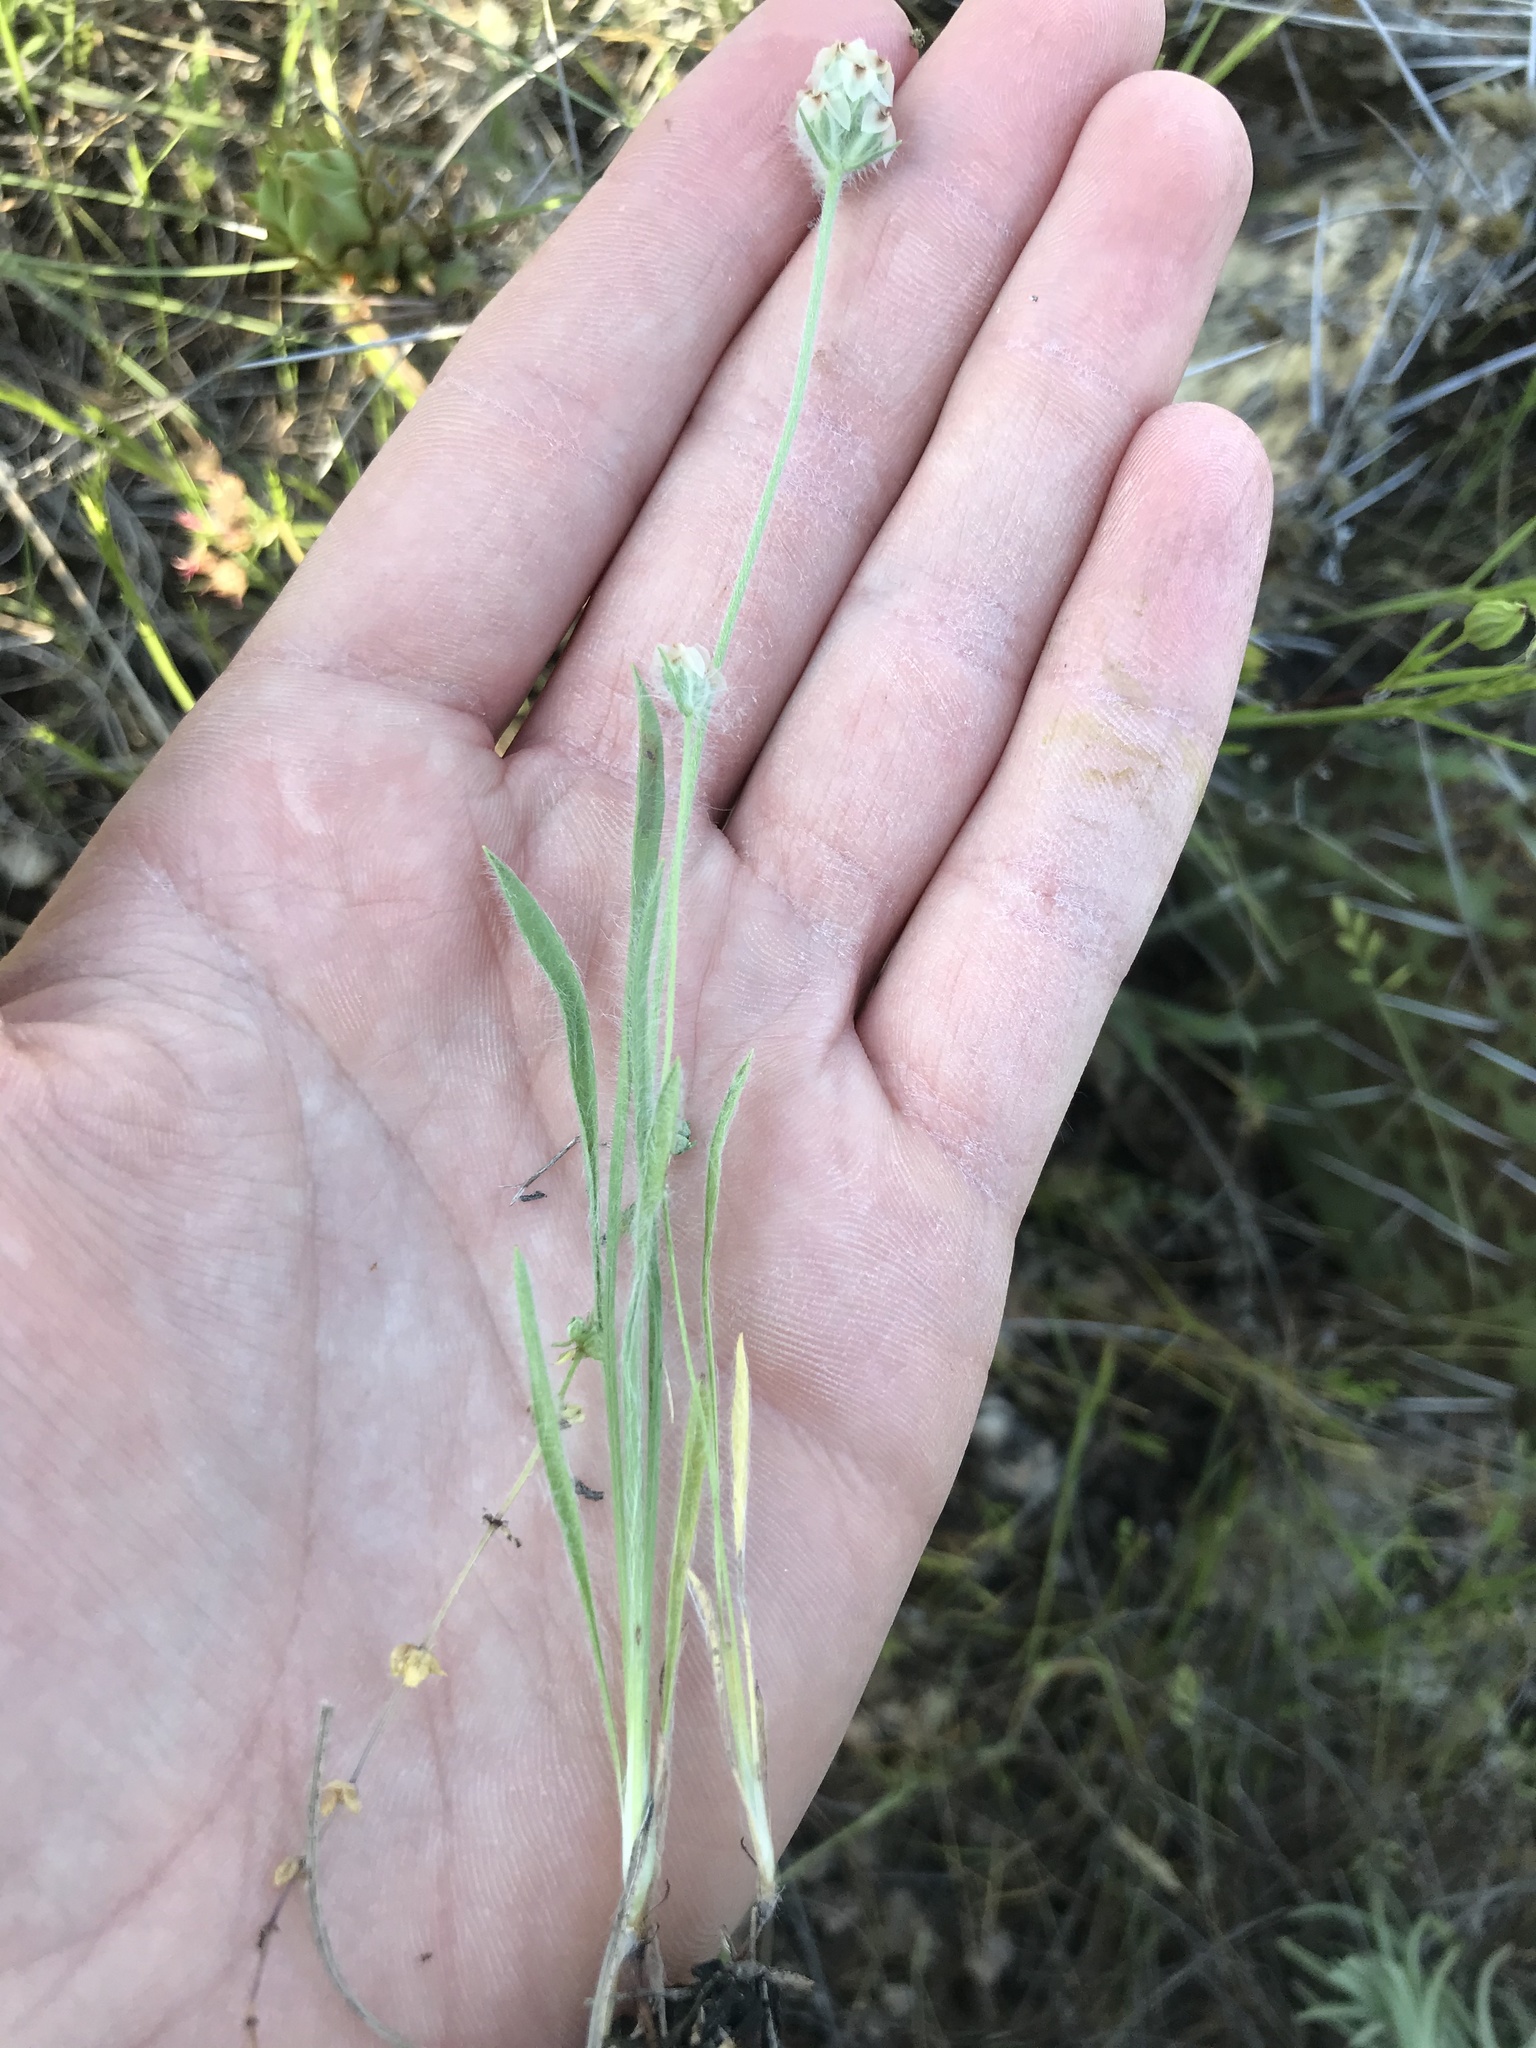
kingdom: Plantae
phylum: Tracheophyta
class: Magnoliopsida
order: Lamiales
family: Plantaginaceae
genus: Plantago
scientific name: Plantago helleri
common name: Heller's plantain
